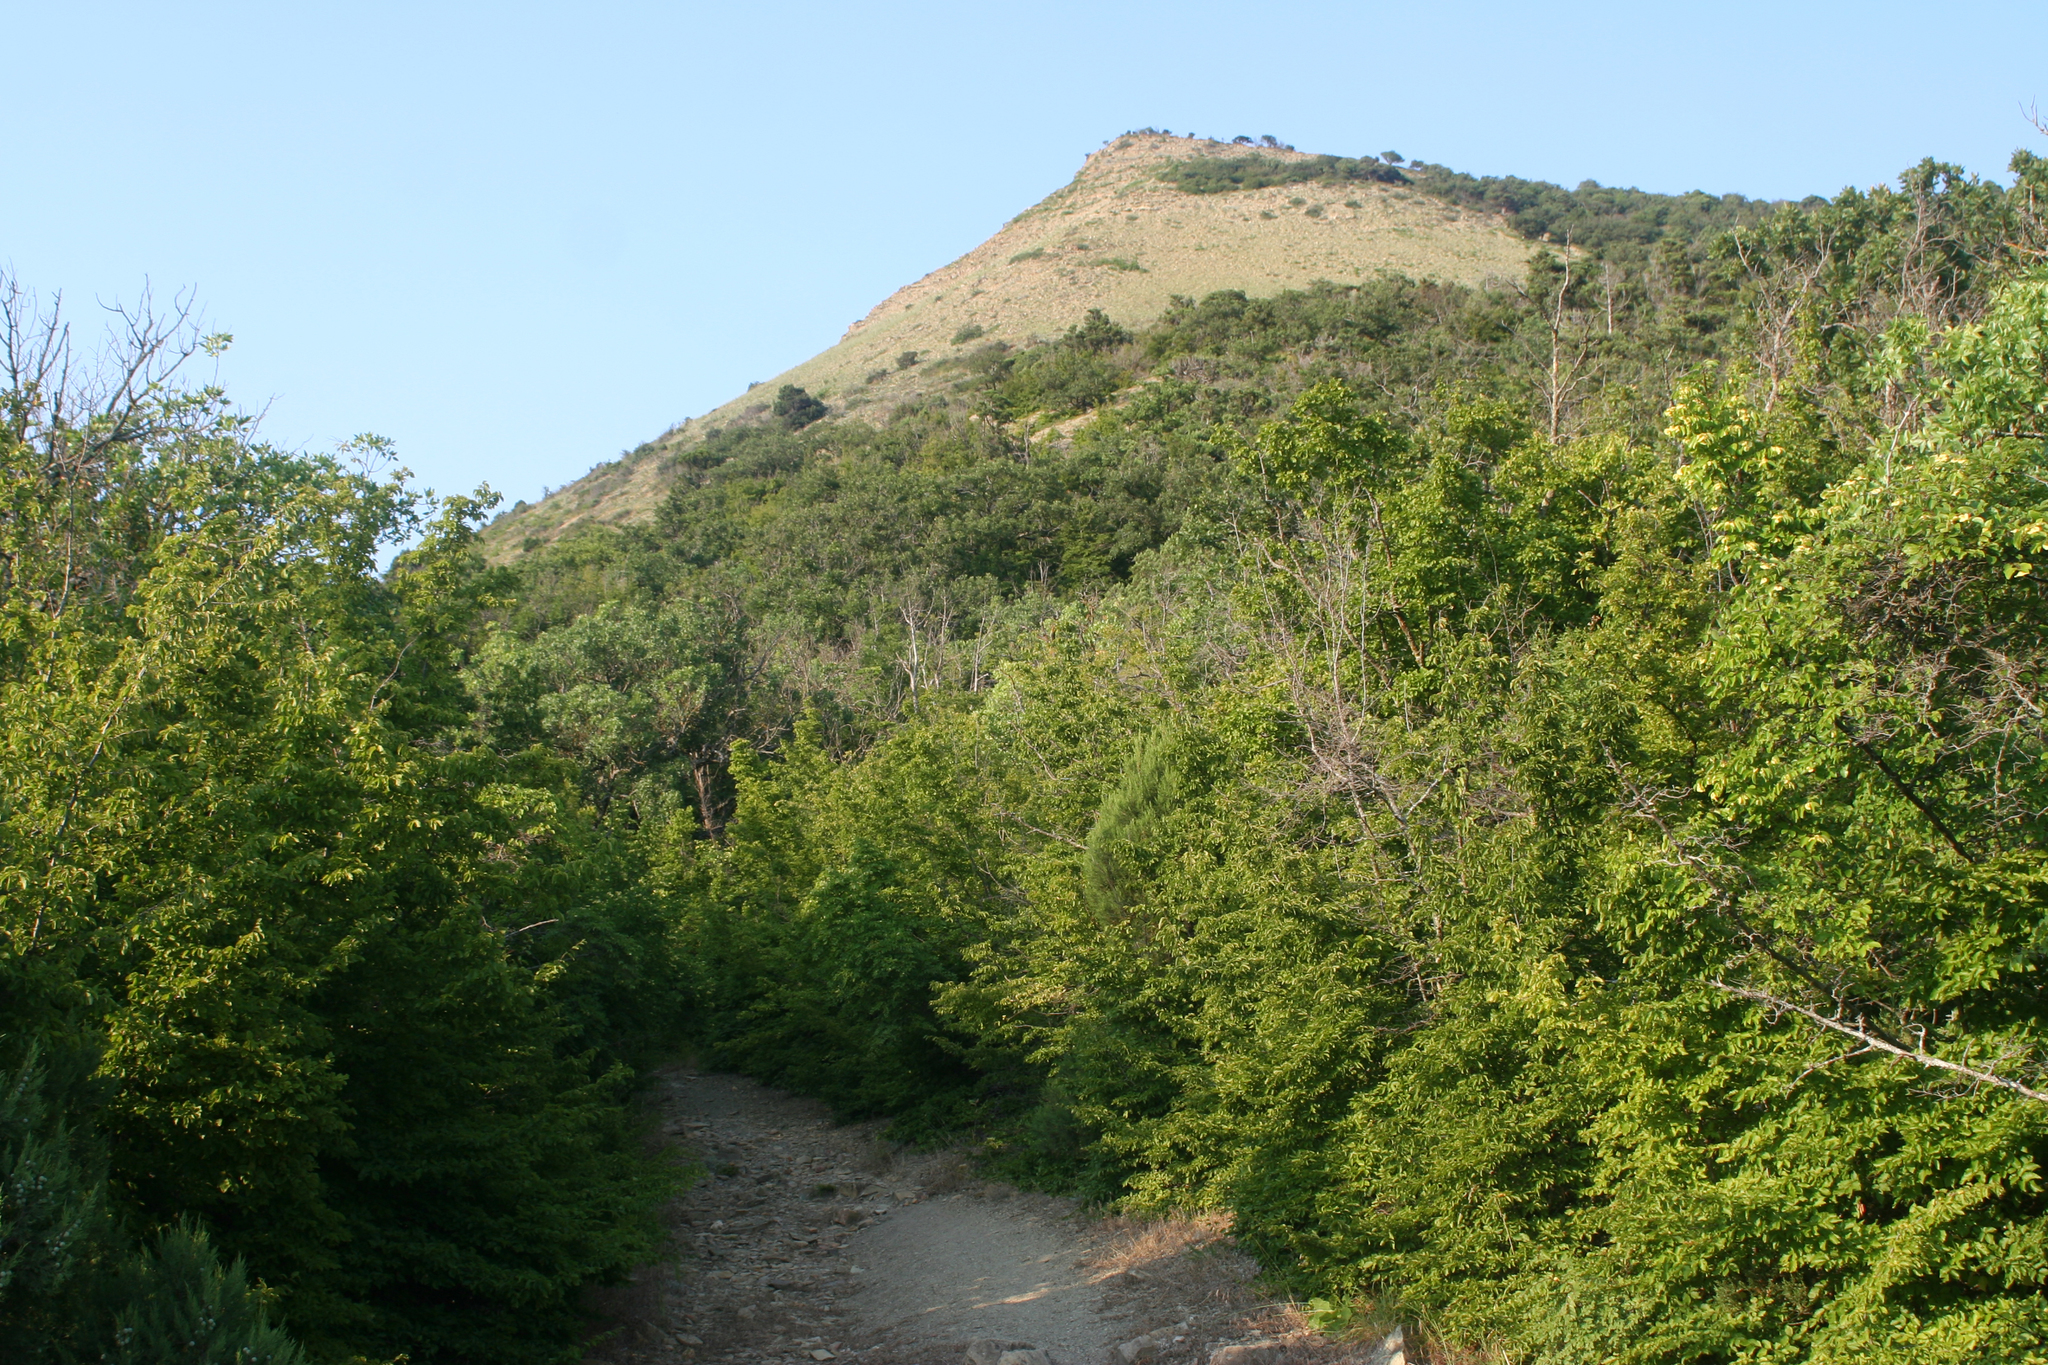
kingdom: Plantae
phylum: Tracheophyta
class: Magnoliopsida
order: Fagales
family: Betulaceae
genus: Carpinus
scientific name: Carpinus orientalis
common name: Eastern hornbeam
